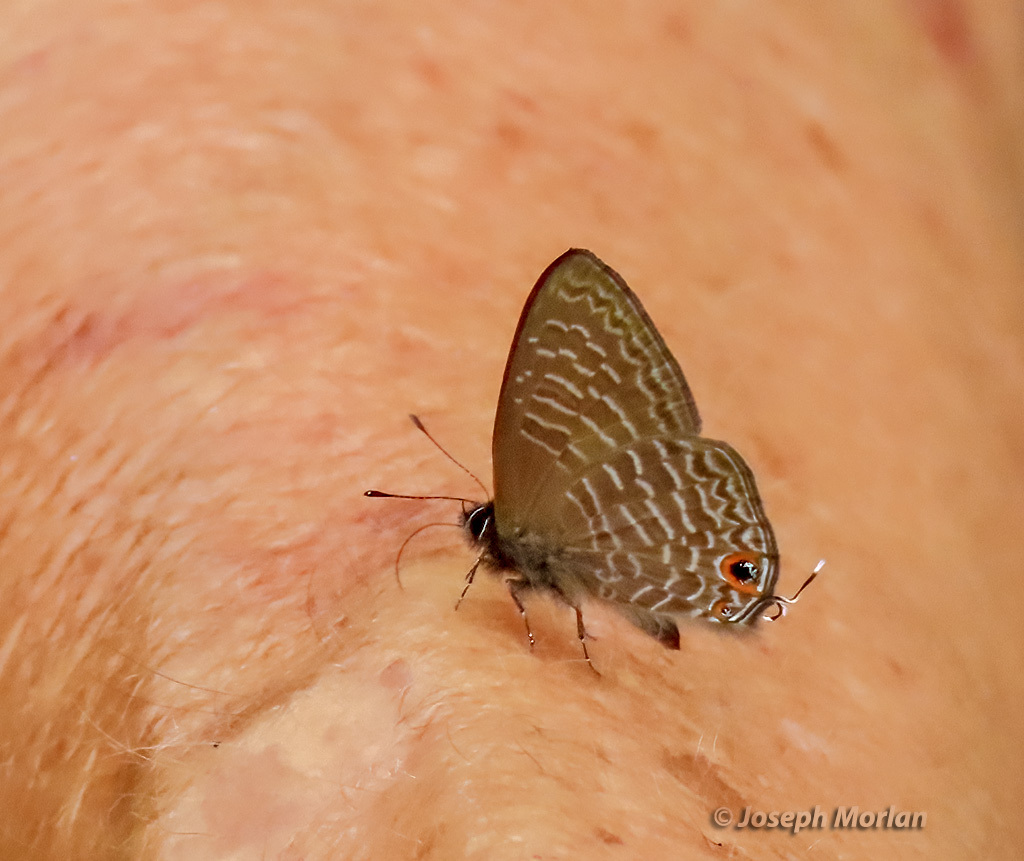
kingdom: Animalia
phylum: Arthropoda
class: Insecta
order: Lepidoptera
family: Lycaenidae
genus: Ionolyce
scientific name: Ionolyce helicon
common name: Pointed line blue
